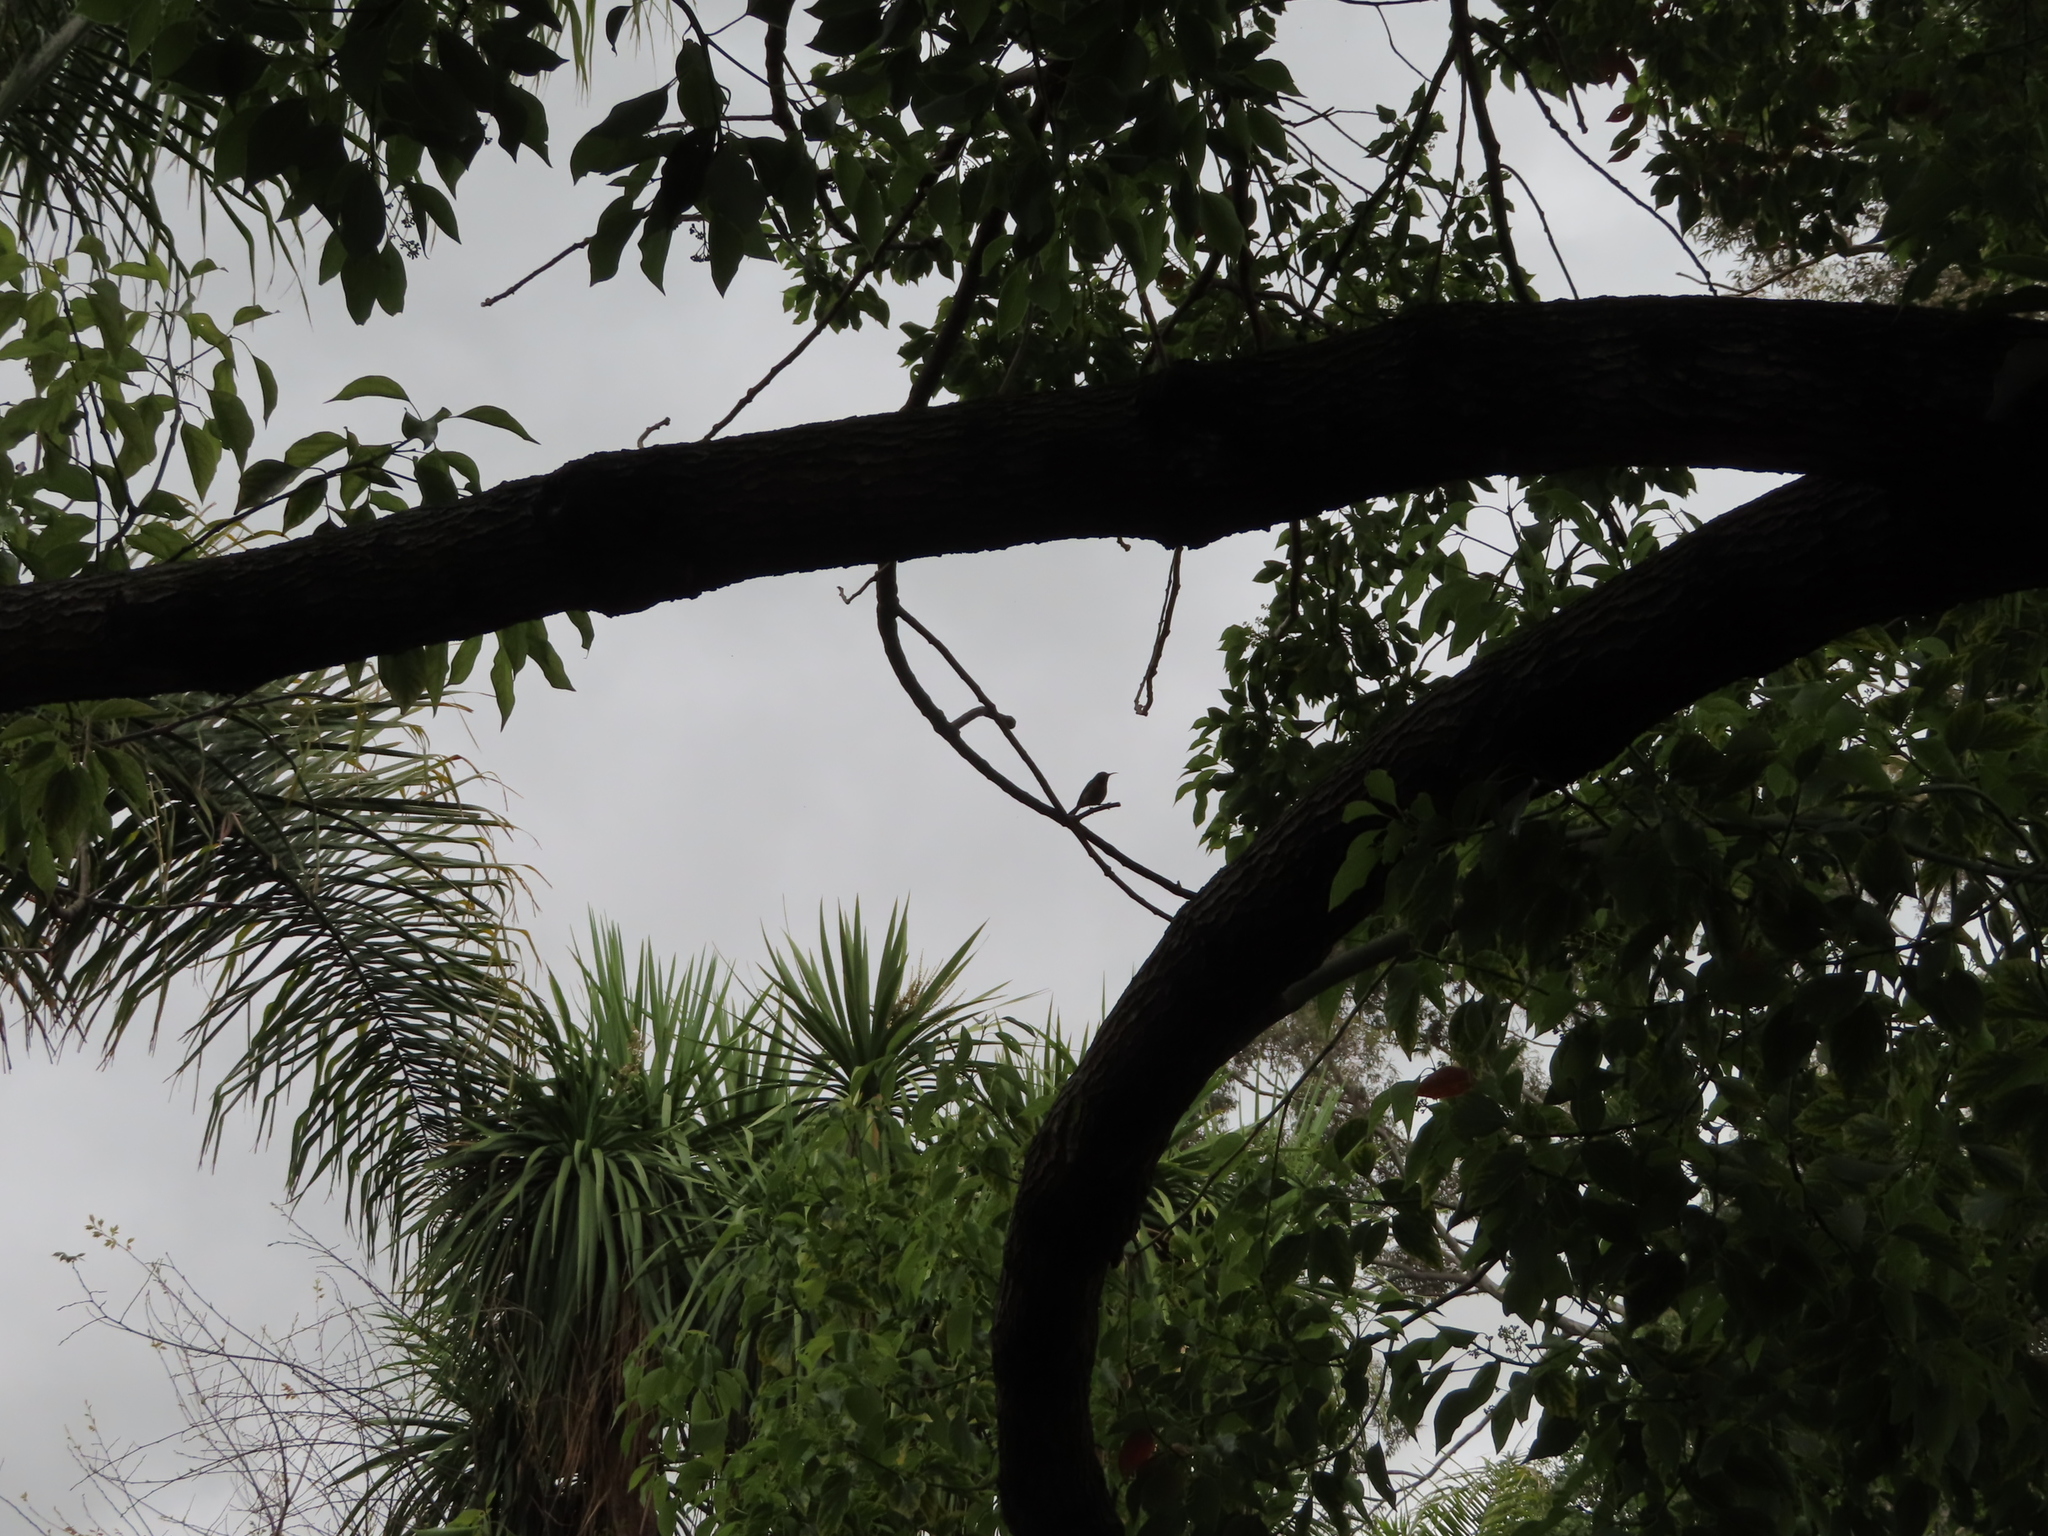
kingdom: Animalia
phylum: Chordata
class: Aves
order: Passeriformes
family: Nectariniidae
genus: Cinnyris
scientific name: Cinnyris chalybeus
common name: Southern double-collared sunbird
